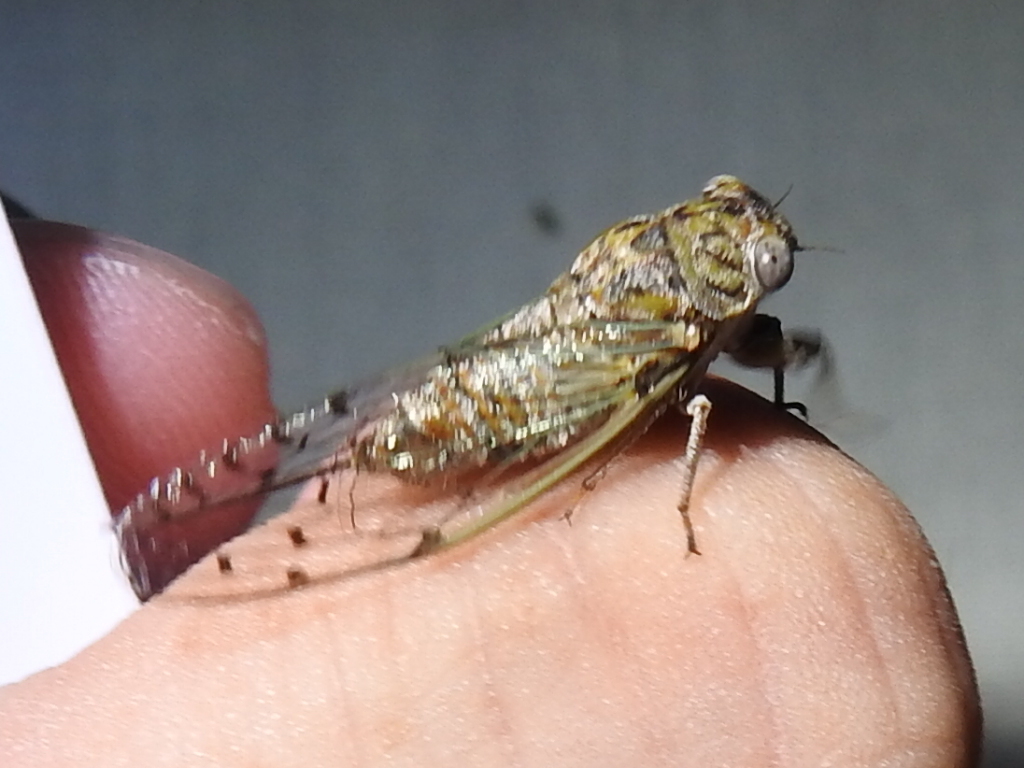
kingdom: Animalia
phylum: Arthropoda
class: Insecta
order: Hemiptera
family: Cicadidae
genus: Pacarina
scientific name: Pacarina puella
